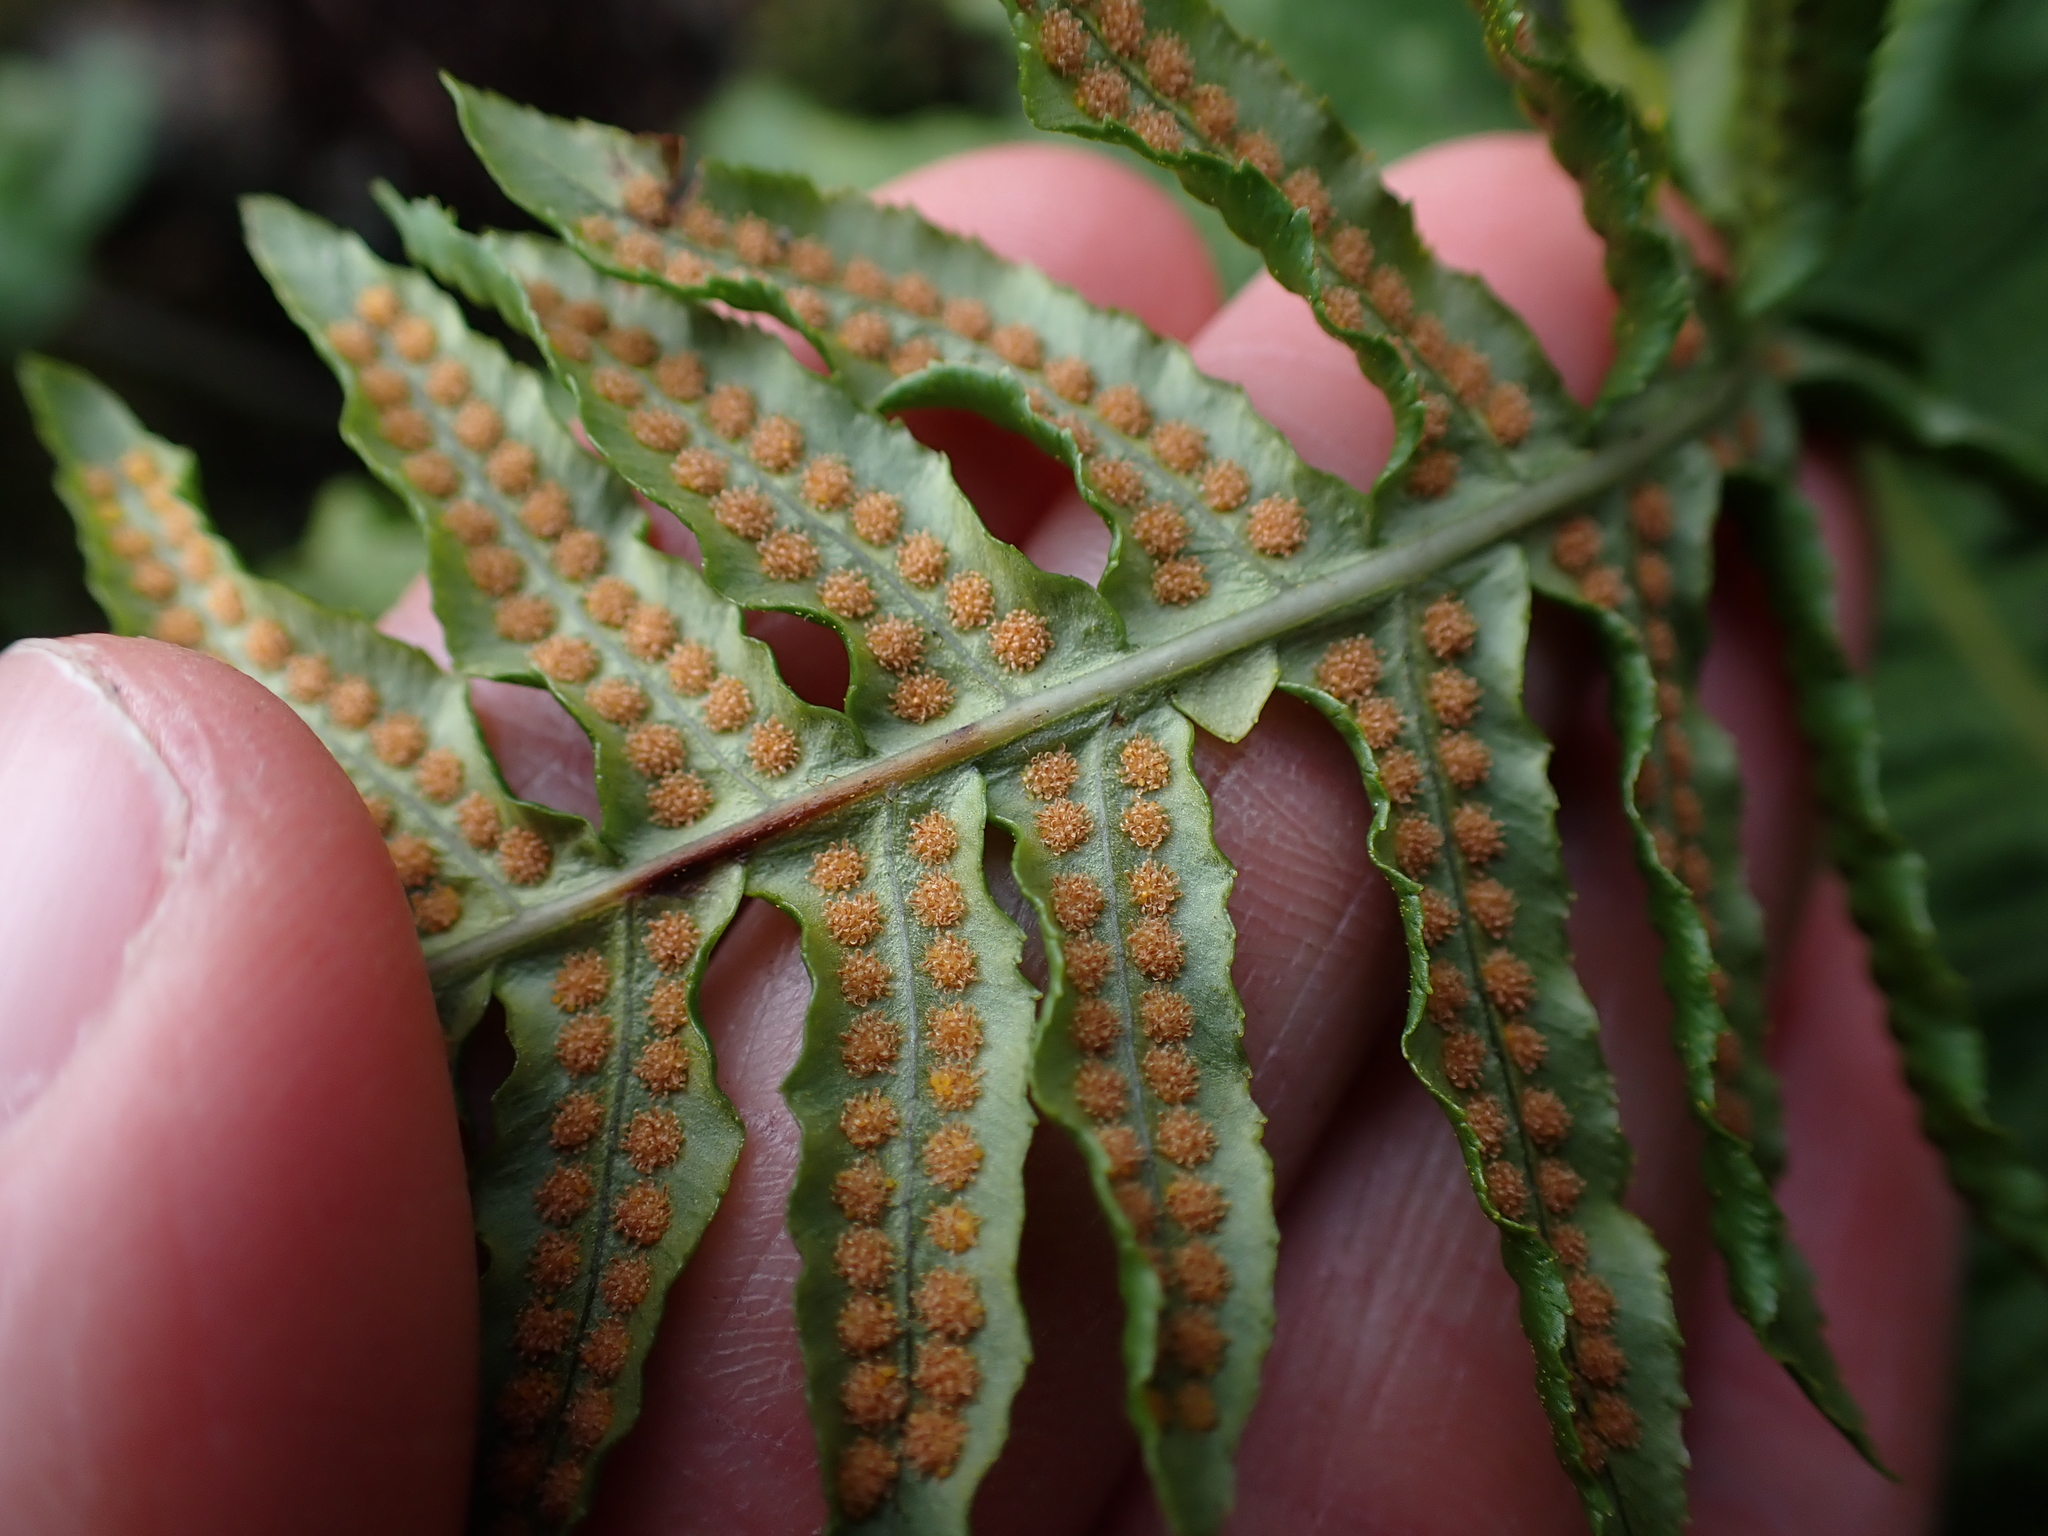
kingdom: Plantae
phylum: Tracheophyta
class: Polypodiopsida
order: Polypodiales
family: Polypodiaceae
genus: Polypodium
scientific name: Polypodium glycyrrhiza
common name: Licorice fern
